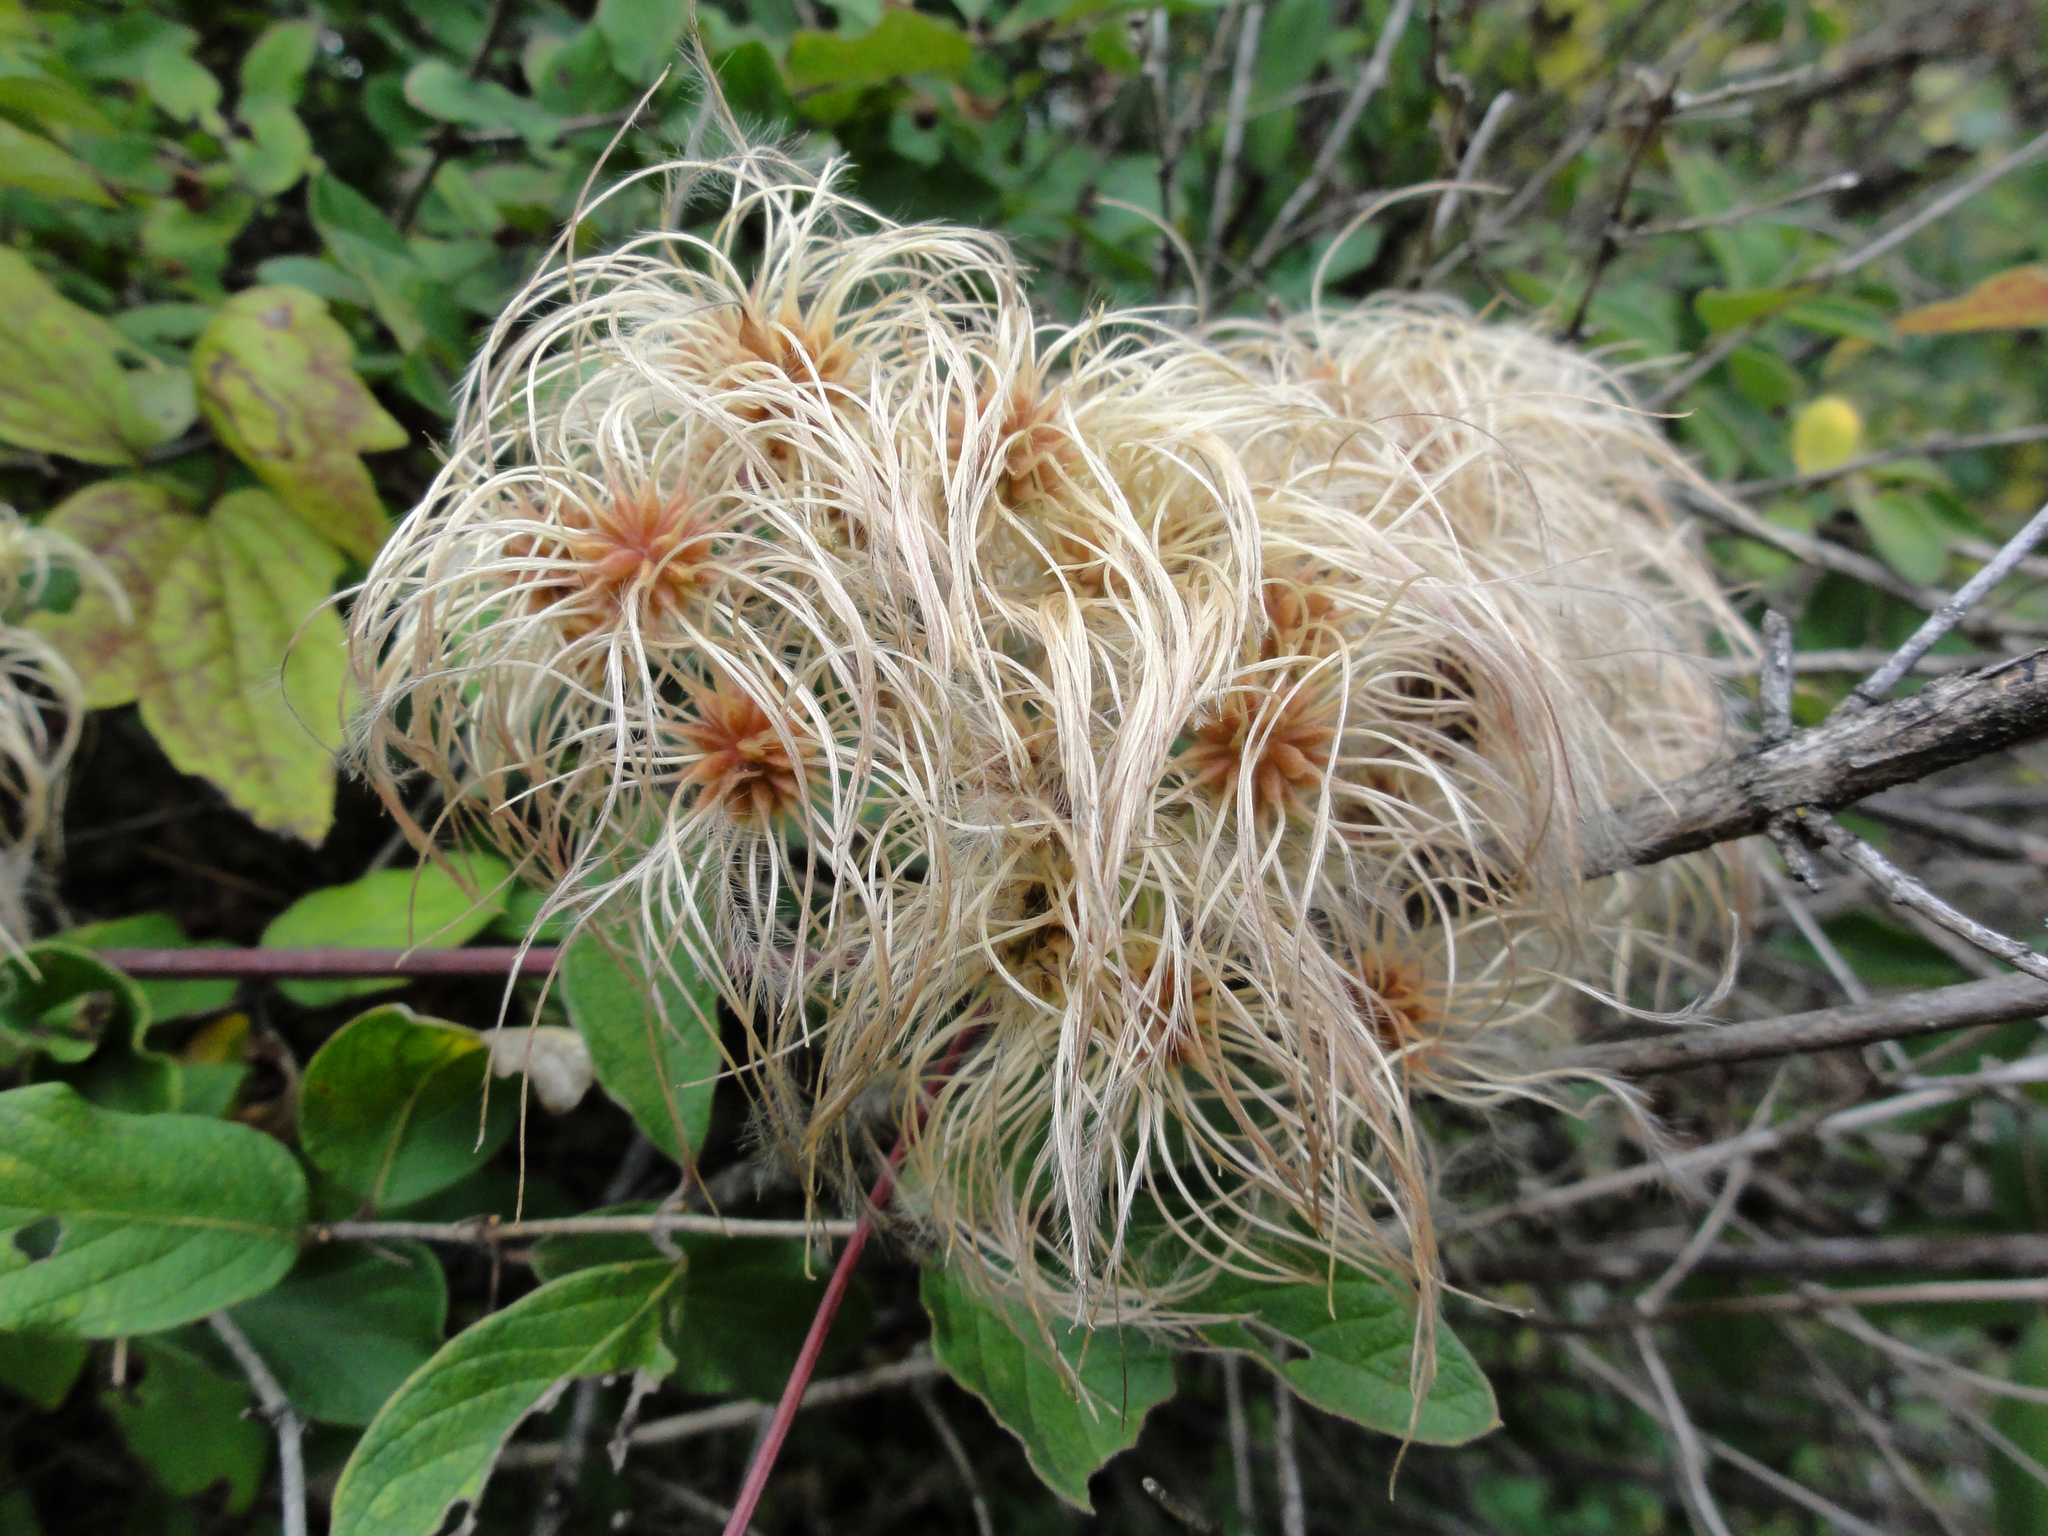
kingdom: Plantae
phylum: Tracheophyta
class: Magnoliopsida
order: Ranunculales
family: Ranunculaceae
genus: Clematis
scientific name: Clematis virginiana
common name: Virgin's-bower
